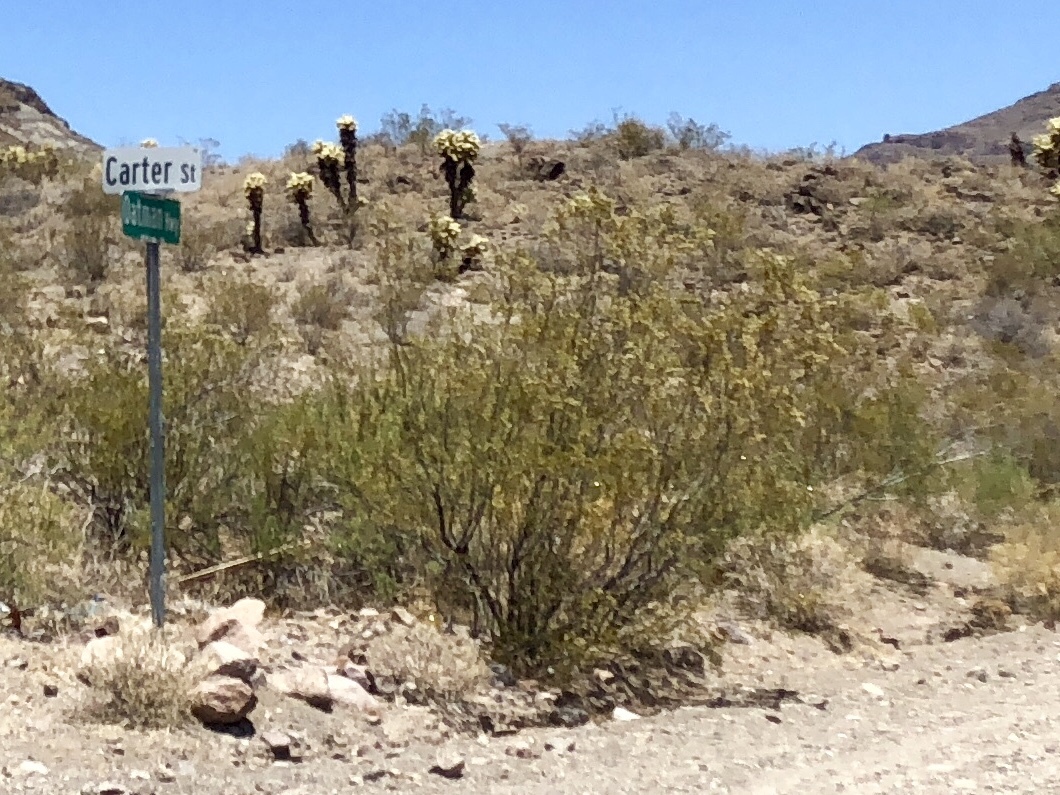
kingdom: Plantae
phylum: Tracheophyta
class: Magnoliopsida
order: Zygophyllales
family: Zygophyllaceae
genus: Larrea
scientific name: Larrea tridentata
